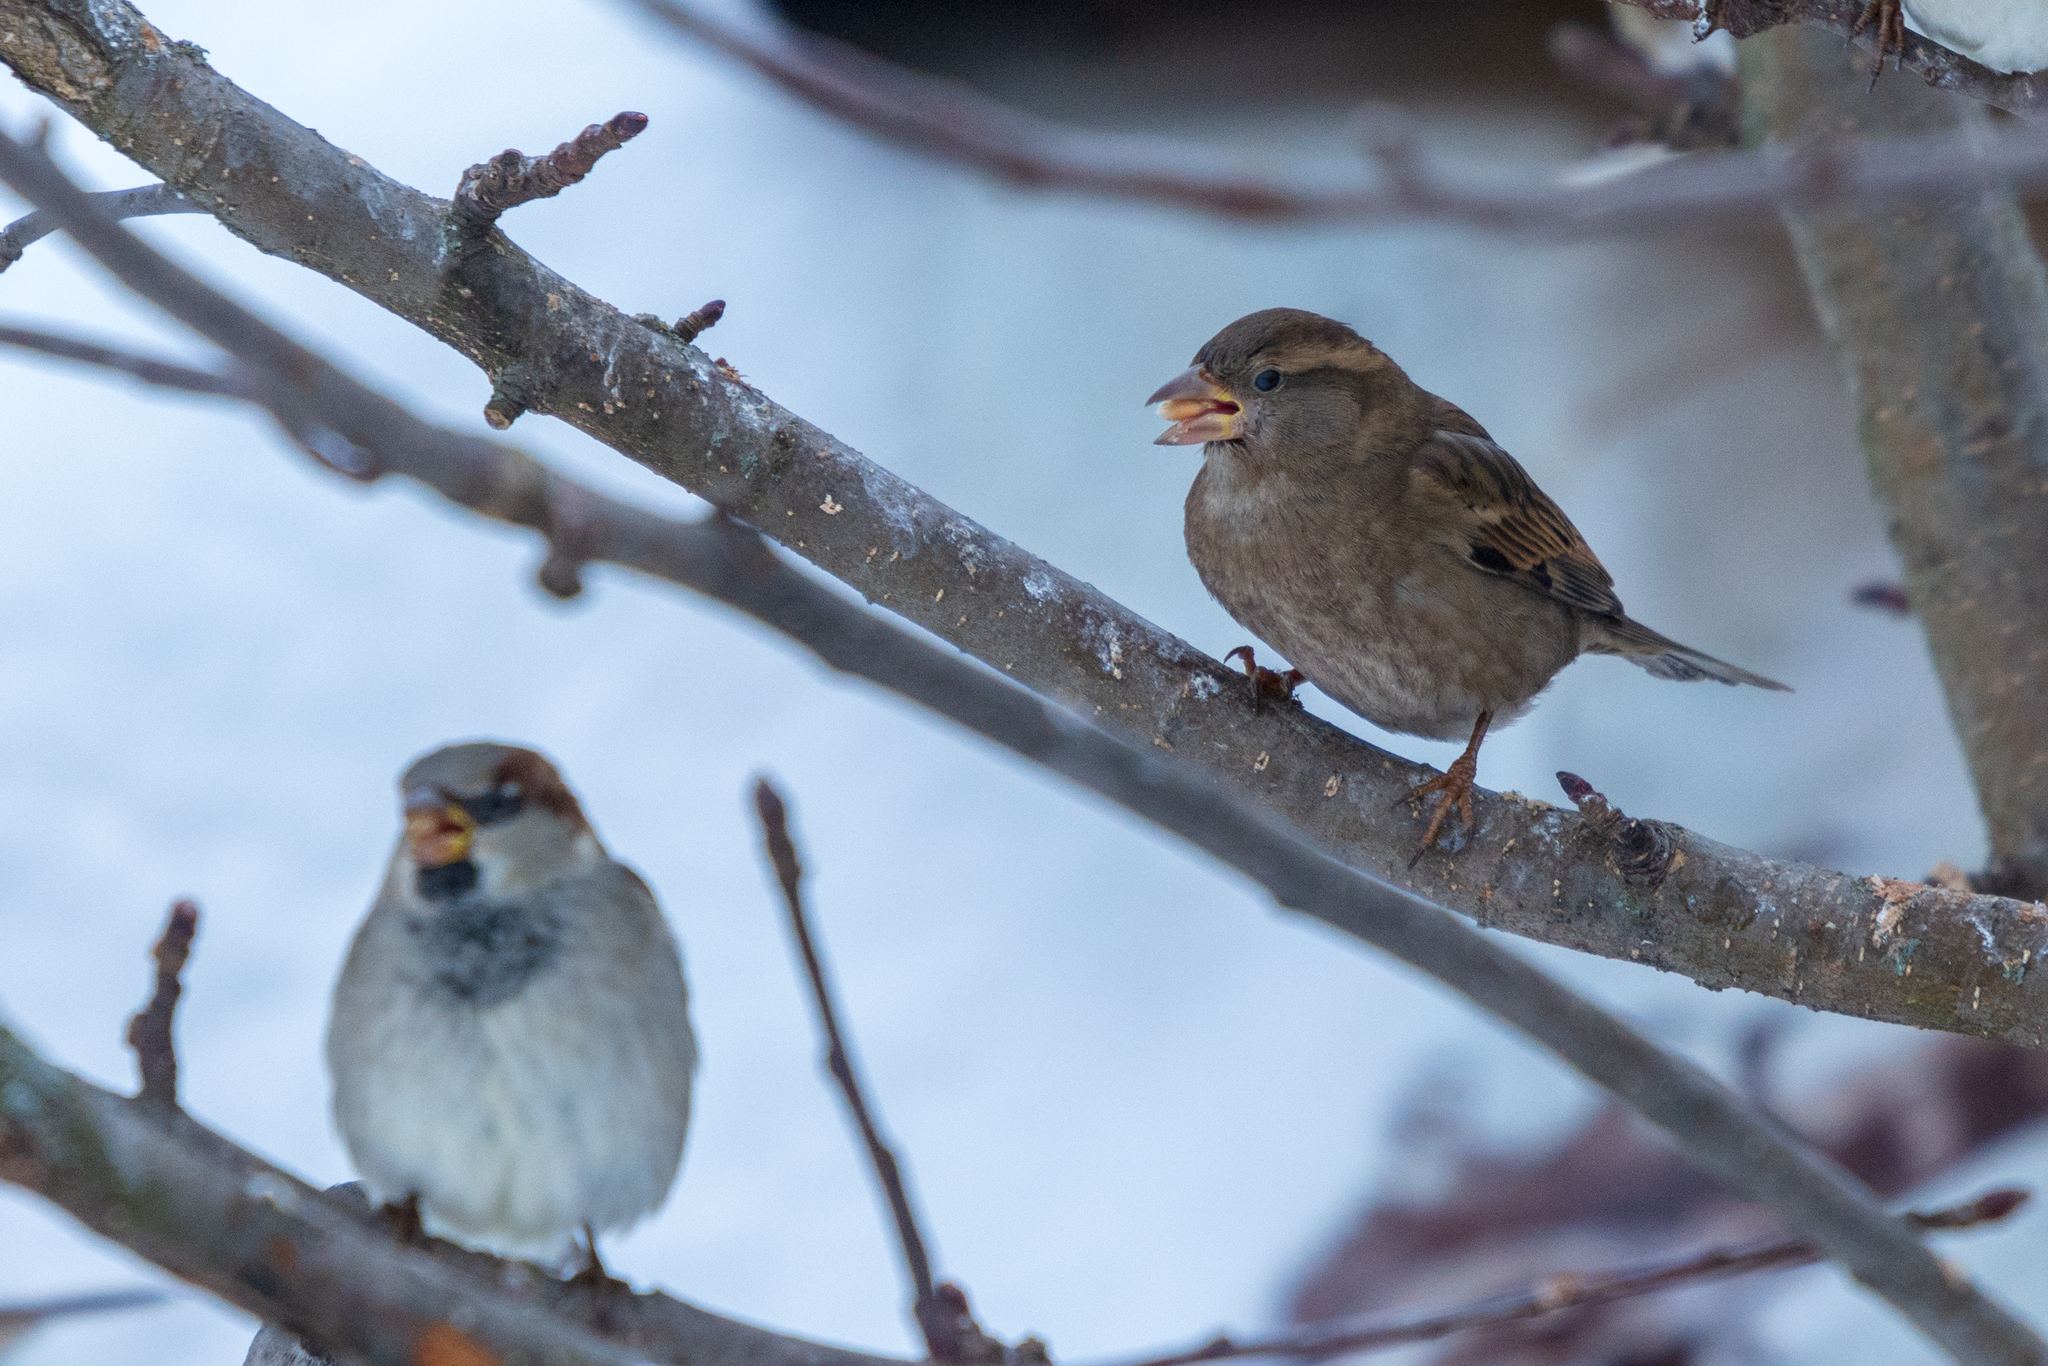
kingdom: Animalia
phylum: Chordata
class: Aves
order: Passeriformes
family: Passeridae
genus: Passer
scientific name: Passer domesticus
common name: House sparrow
